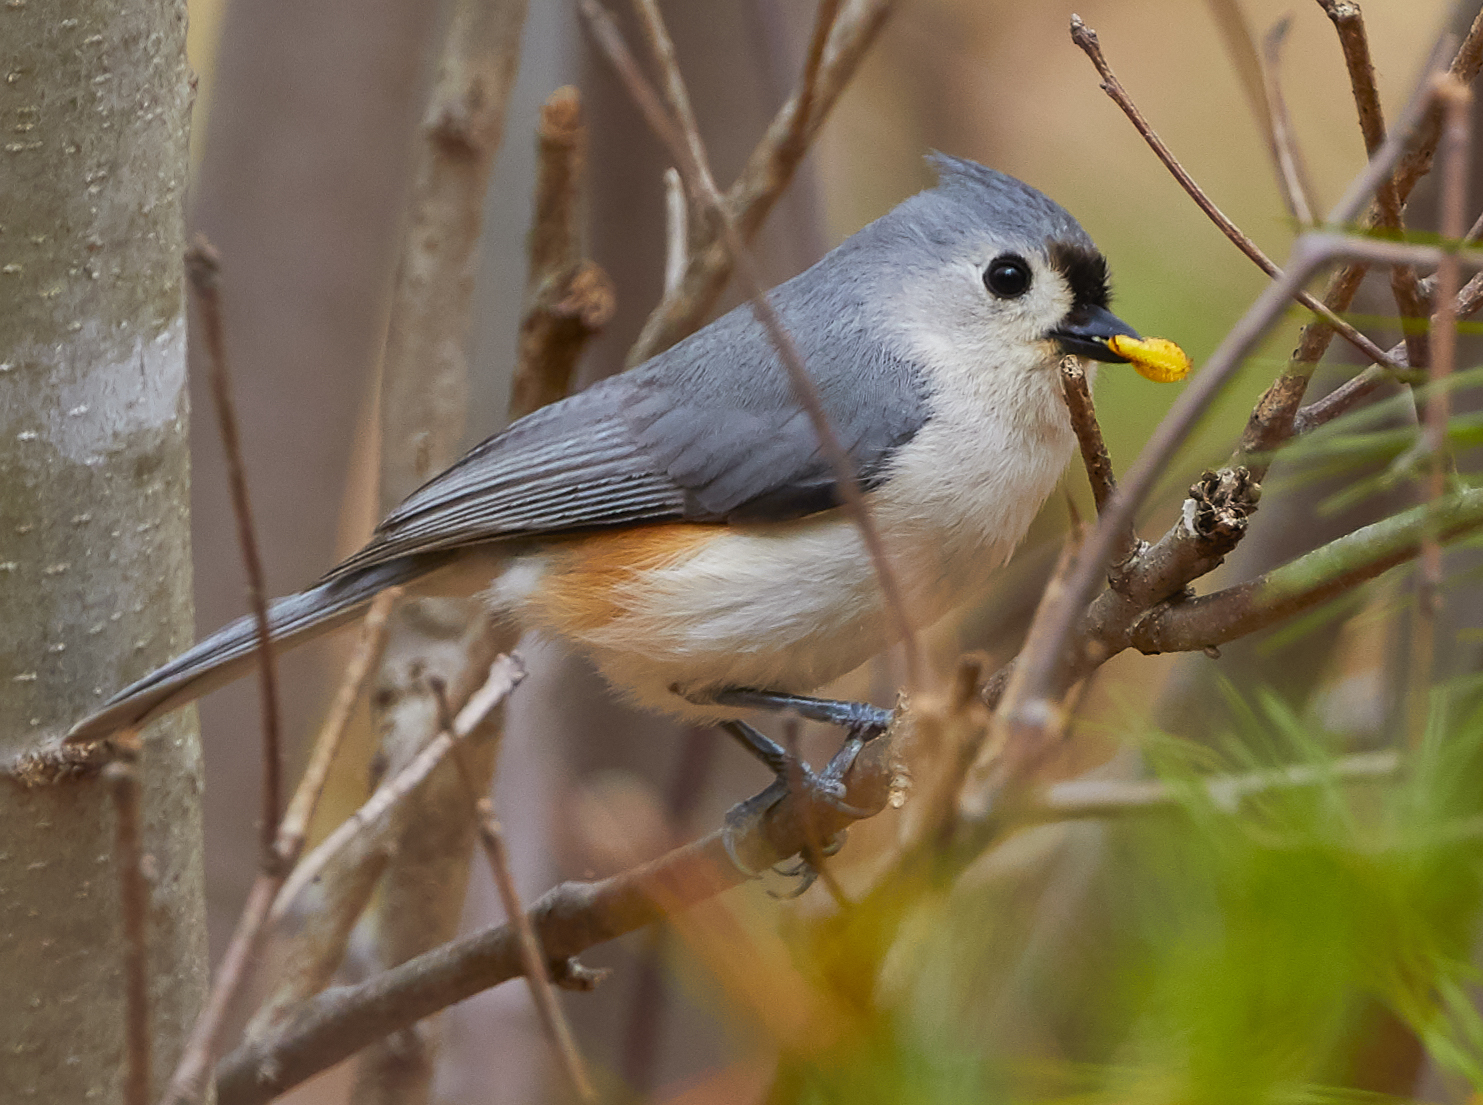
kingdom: Animalia
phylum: Chordata
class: Aves
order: Passeriformes
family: Paridae
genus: Baeolophus
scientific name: Baeolophus bicolor
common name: Tufted titmouse
